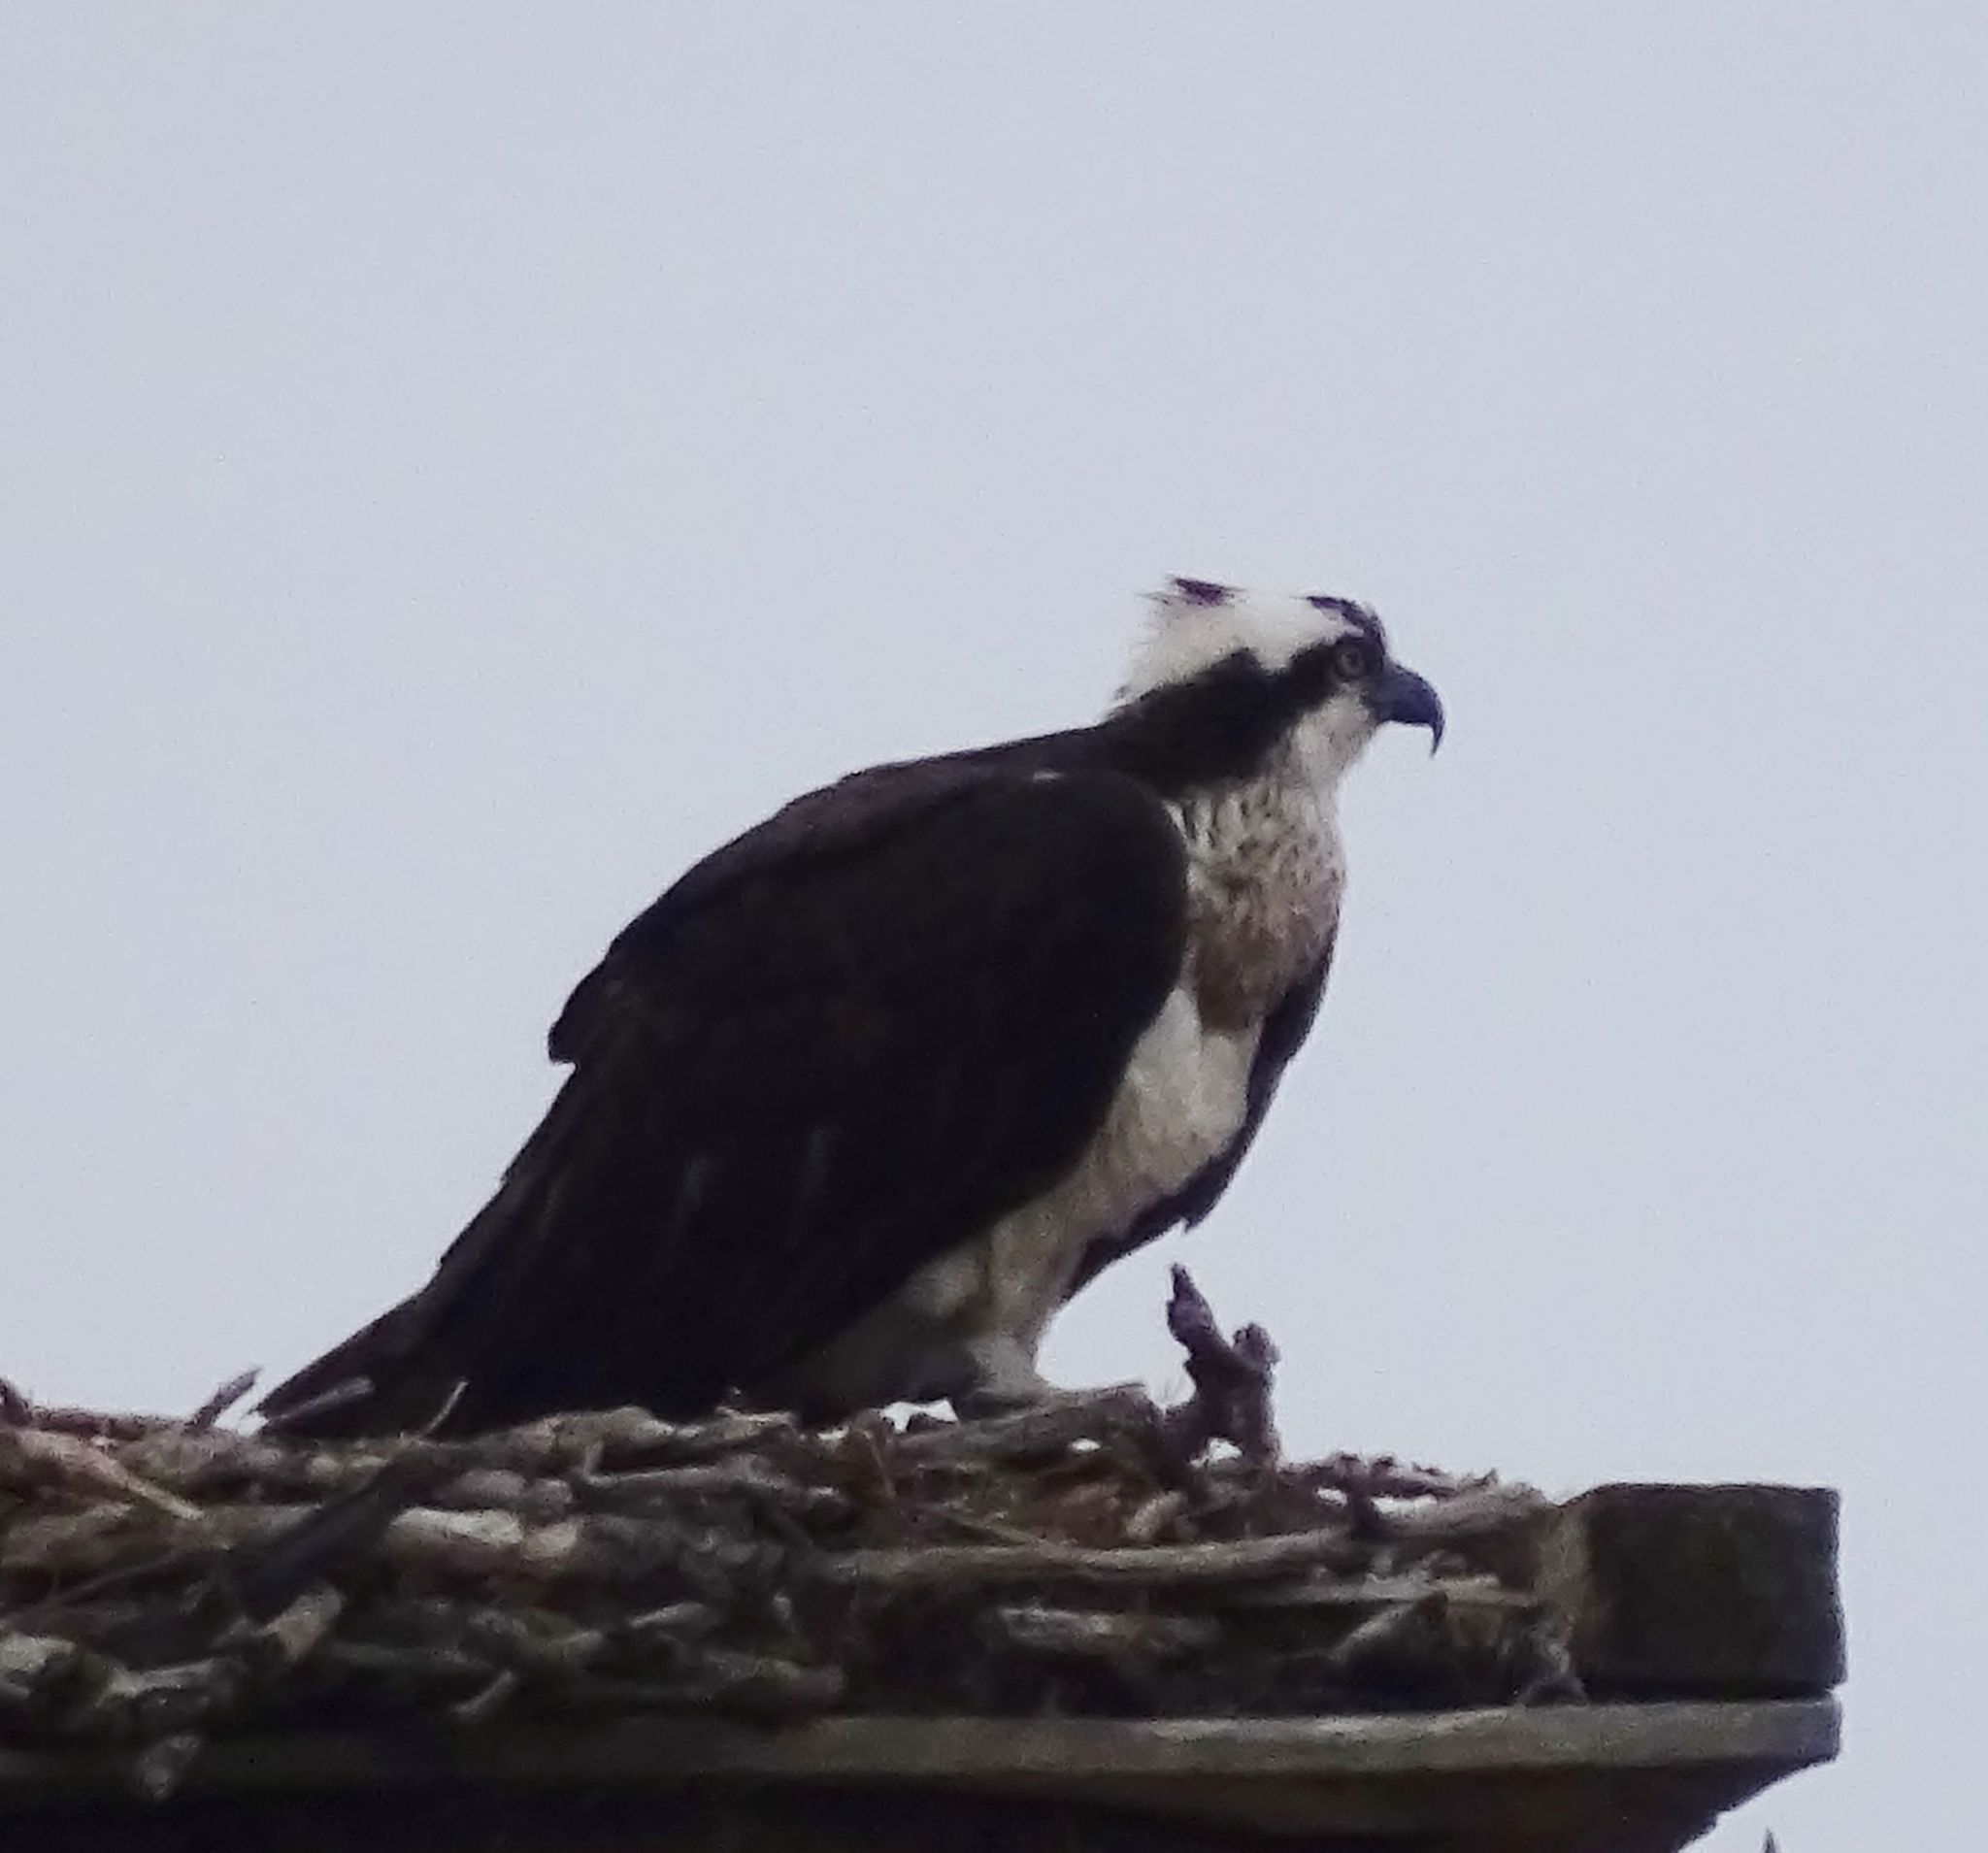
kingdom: Animalia
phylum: Chordata
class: Aves
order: Accipitriformes
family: Pandionidae
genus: Pandion
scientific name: Pandion haliaetus
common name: Osprey
